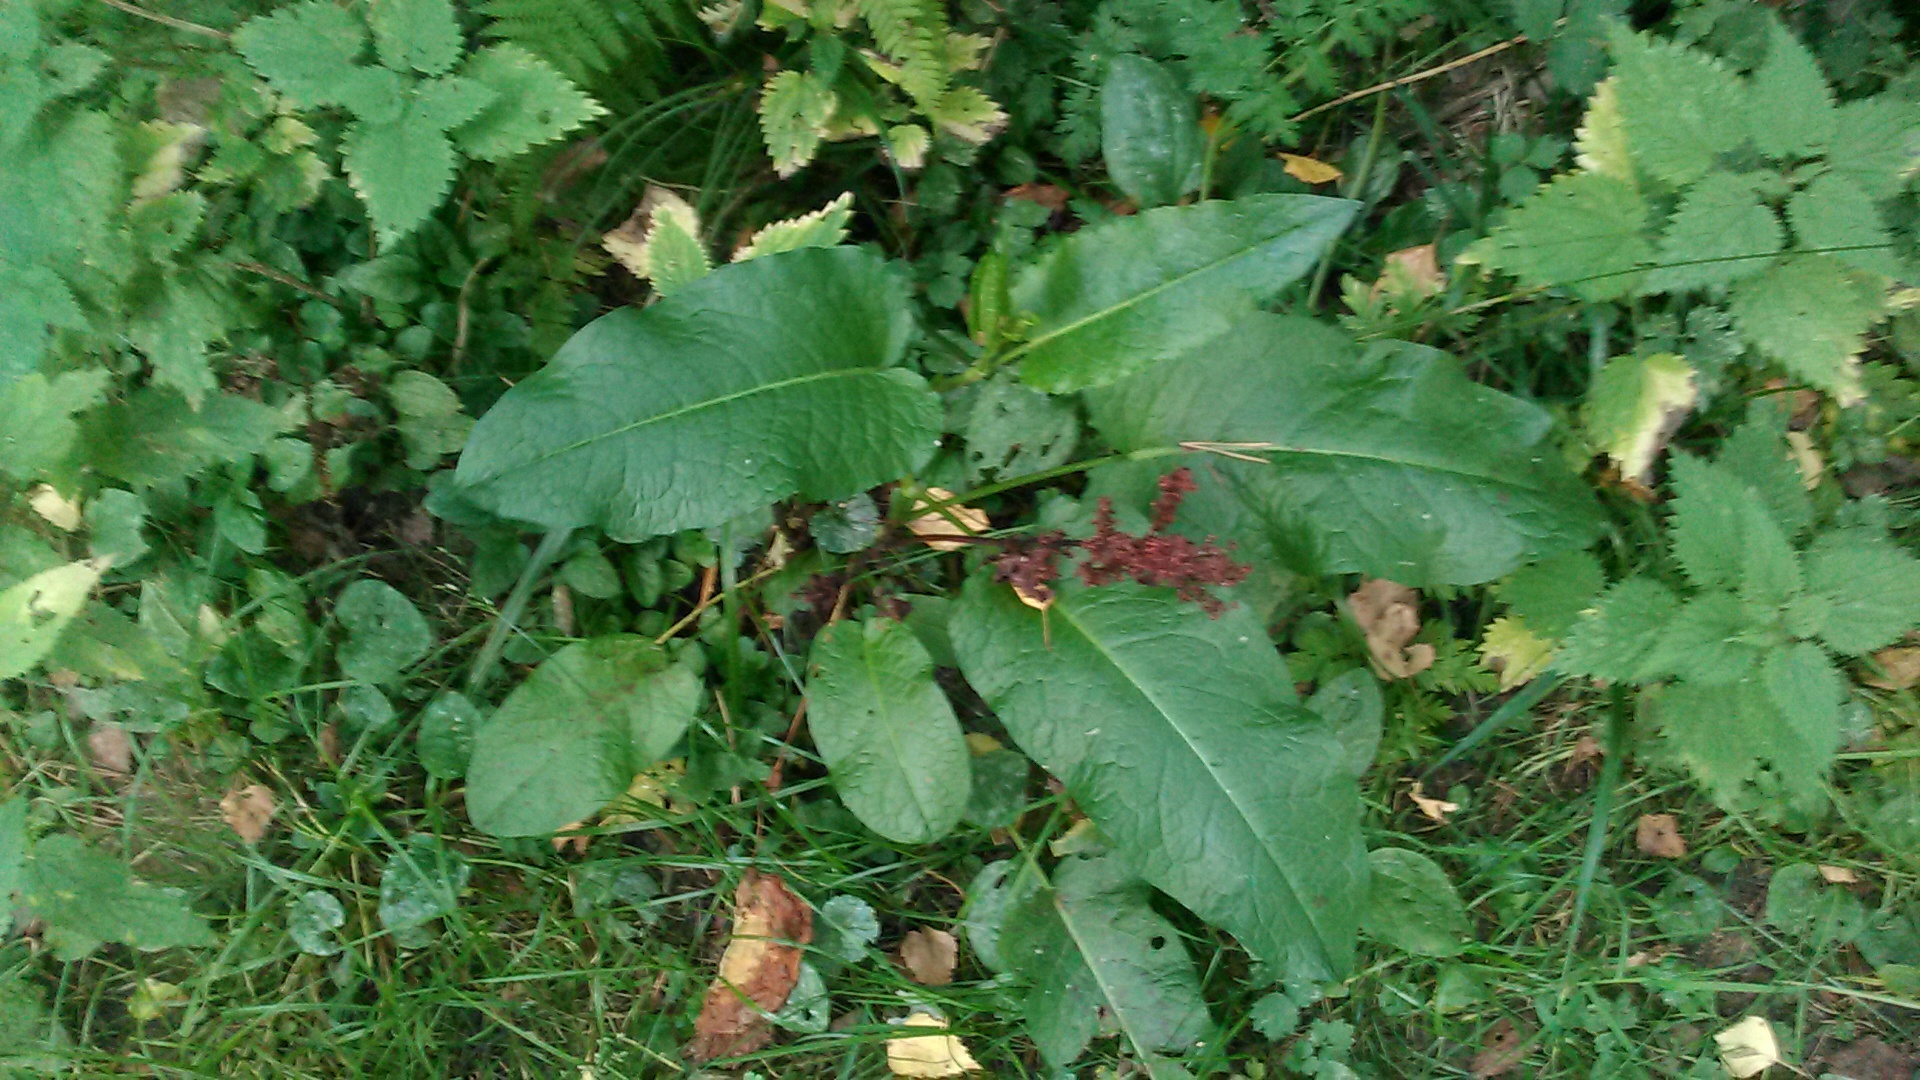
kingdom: Plantae
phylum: Tracheophyta
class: Magnoliopsida
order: Caryophyllales
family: Polygonaceae
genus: Rumex
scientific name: Rumex obtusifolius
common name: Bitter dock
